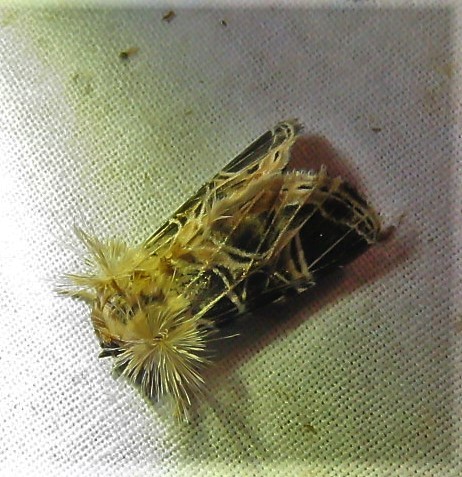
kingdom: Animalia
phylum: Arthropoda
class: Insecta
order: Lepidoptera
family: Noctuidae
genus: Callopistria
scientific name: Callopistria dapsilis
